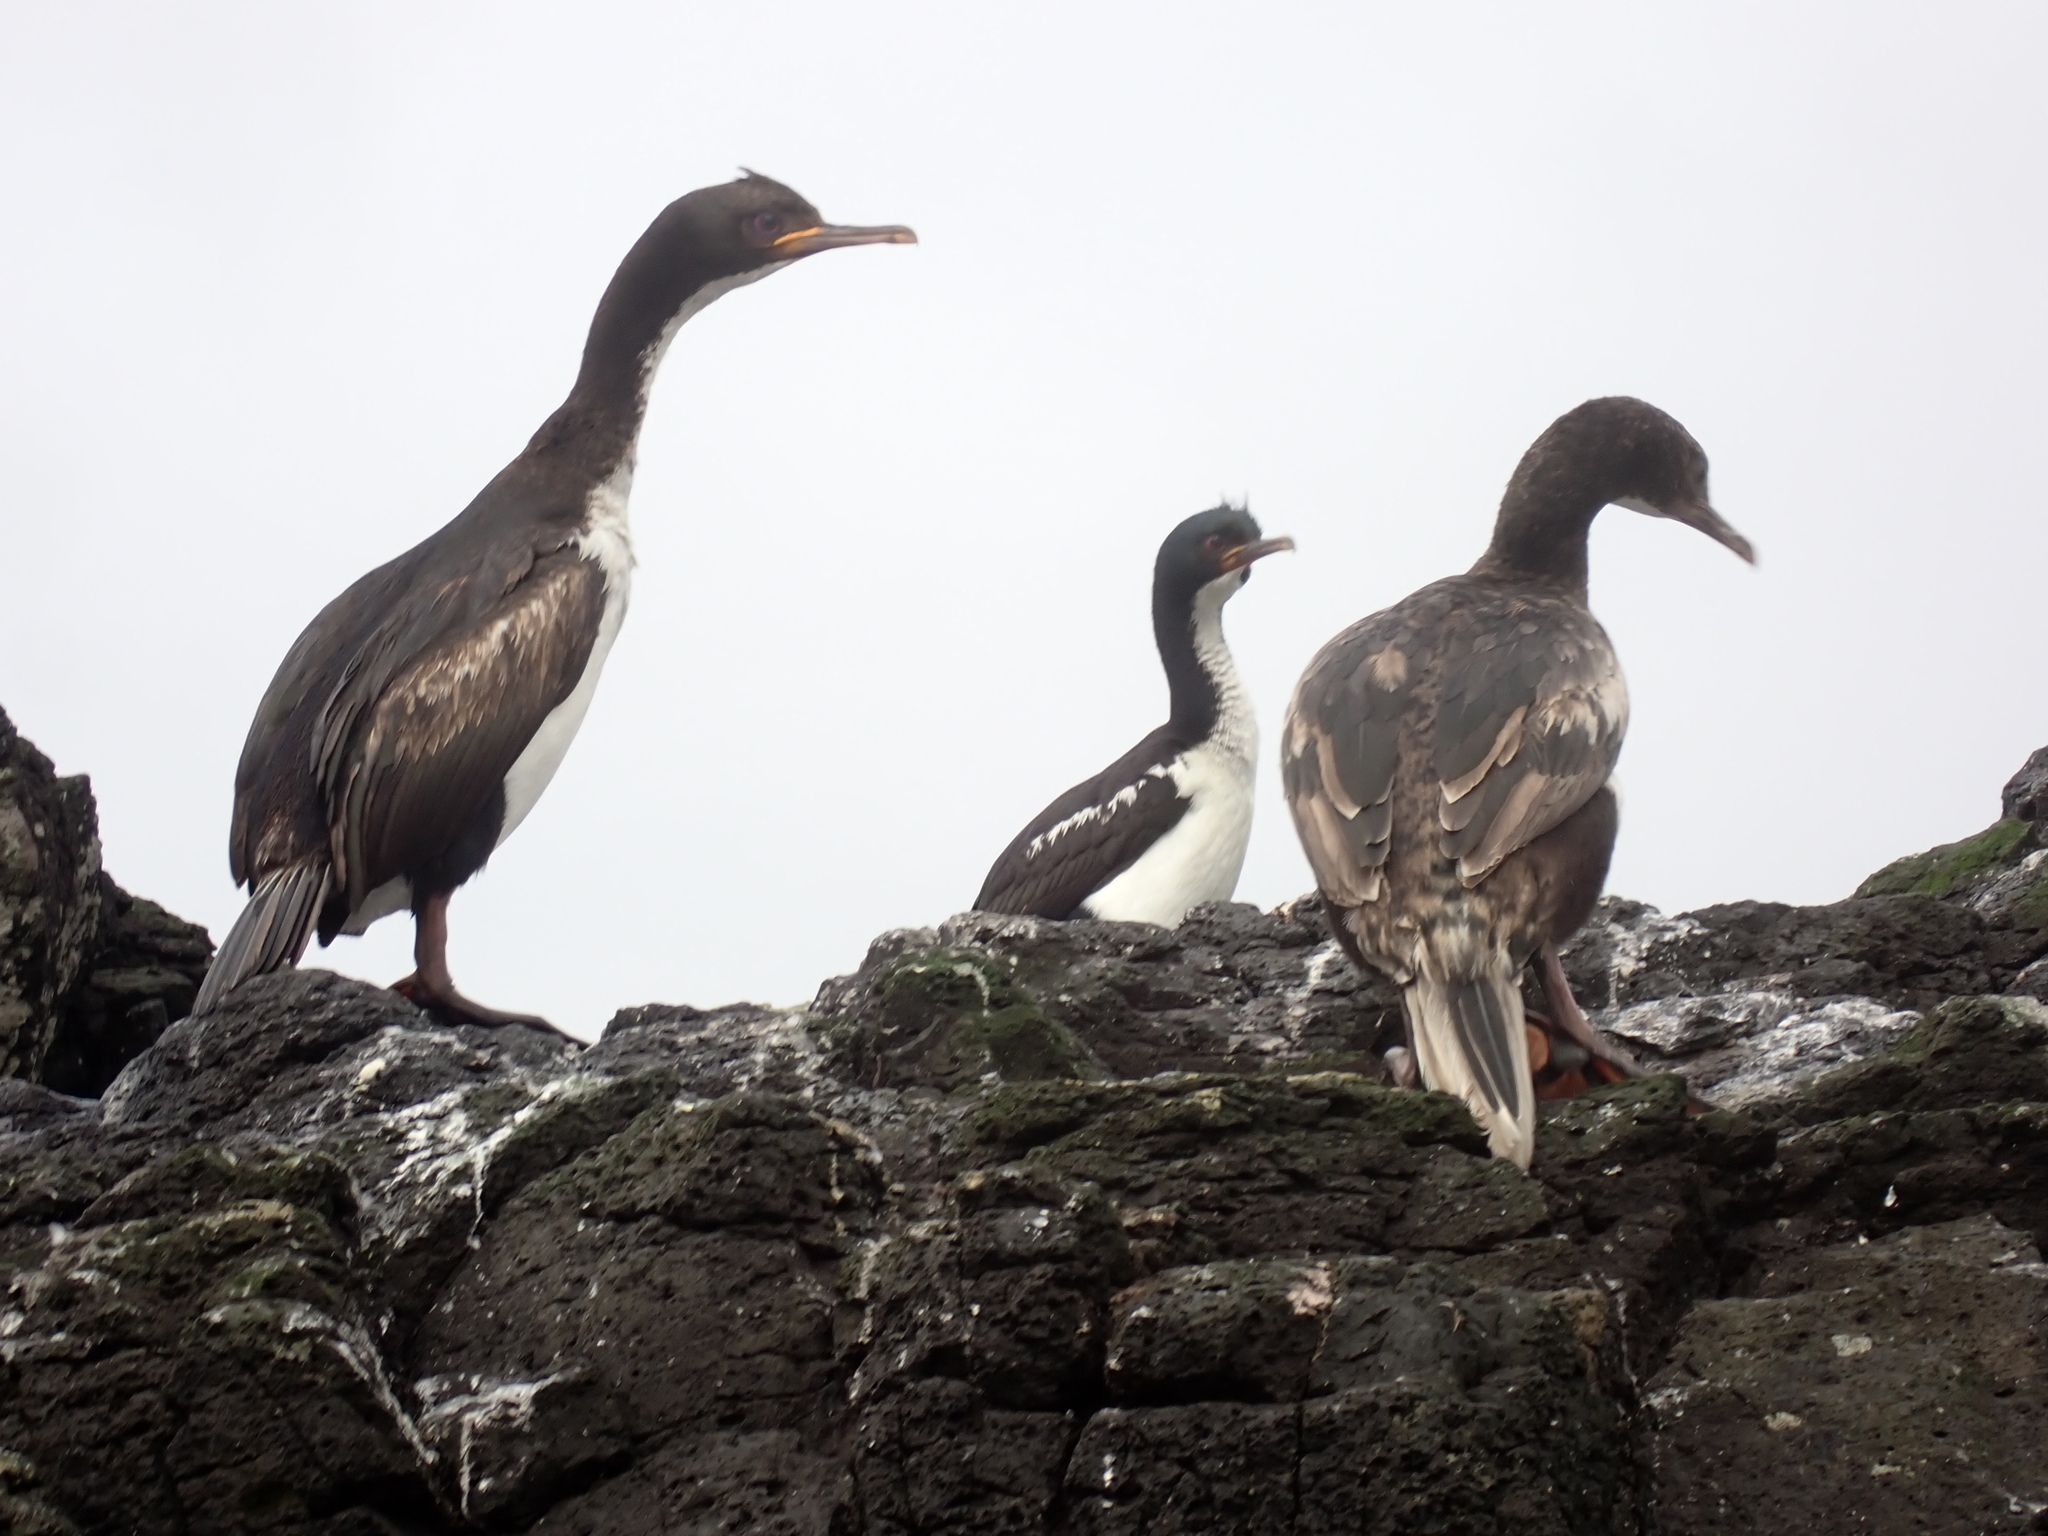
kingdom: Animalia
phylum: Chordata
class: Aves
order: Suliformes
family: Phalacrocoracidae
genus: Leucocarbo
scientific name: Leucocarbo colensoi
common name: Auckland shag
